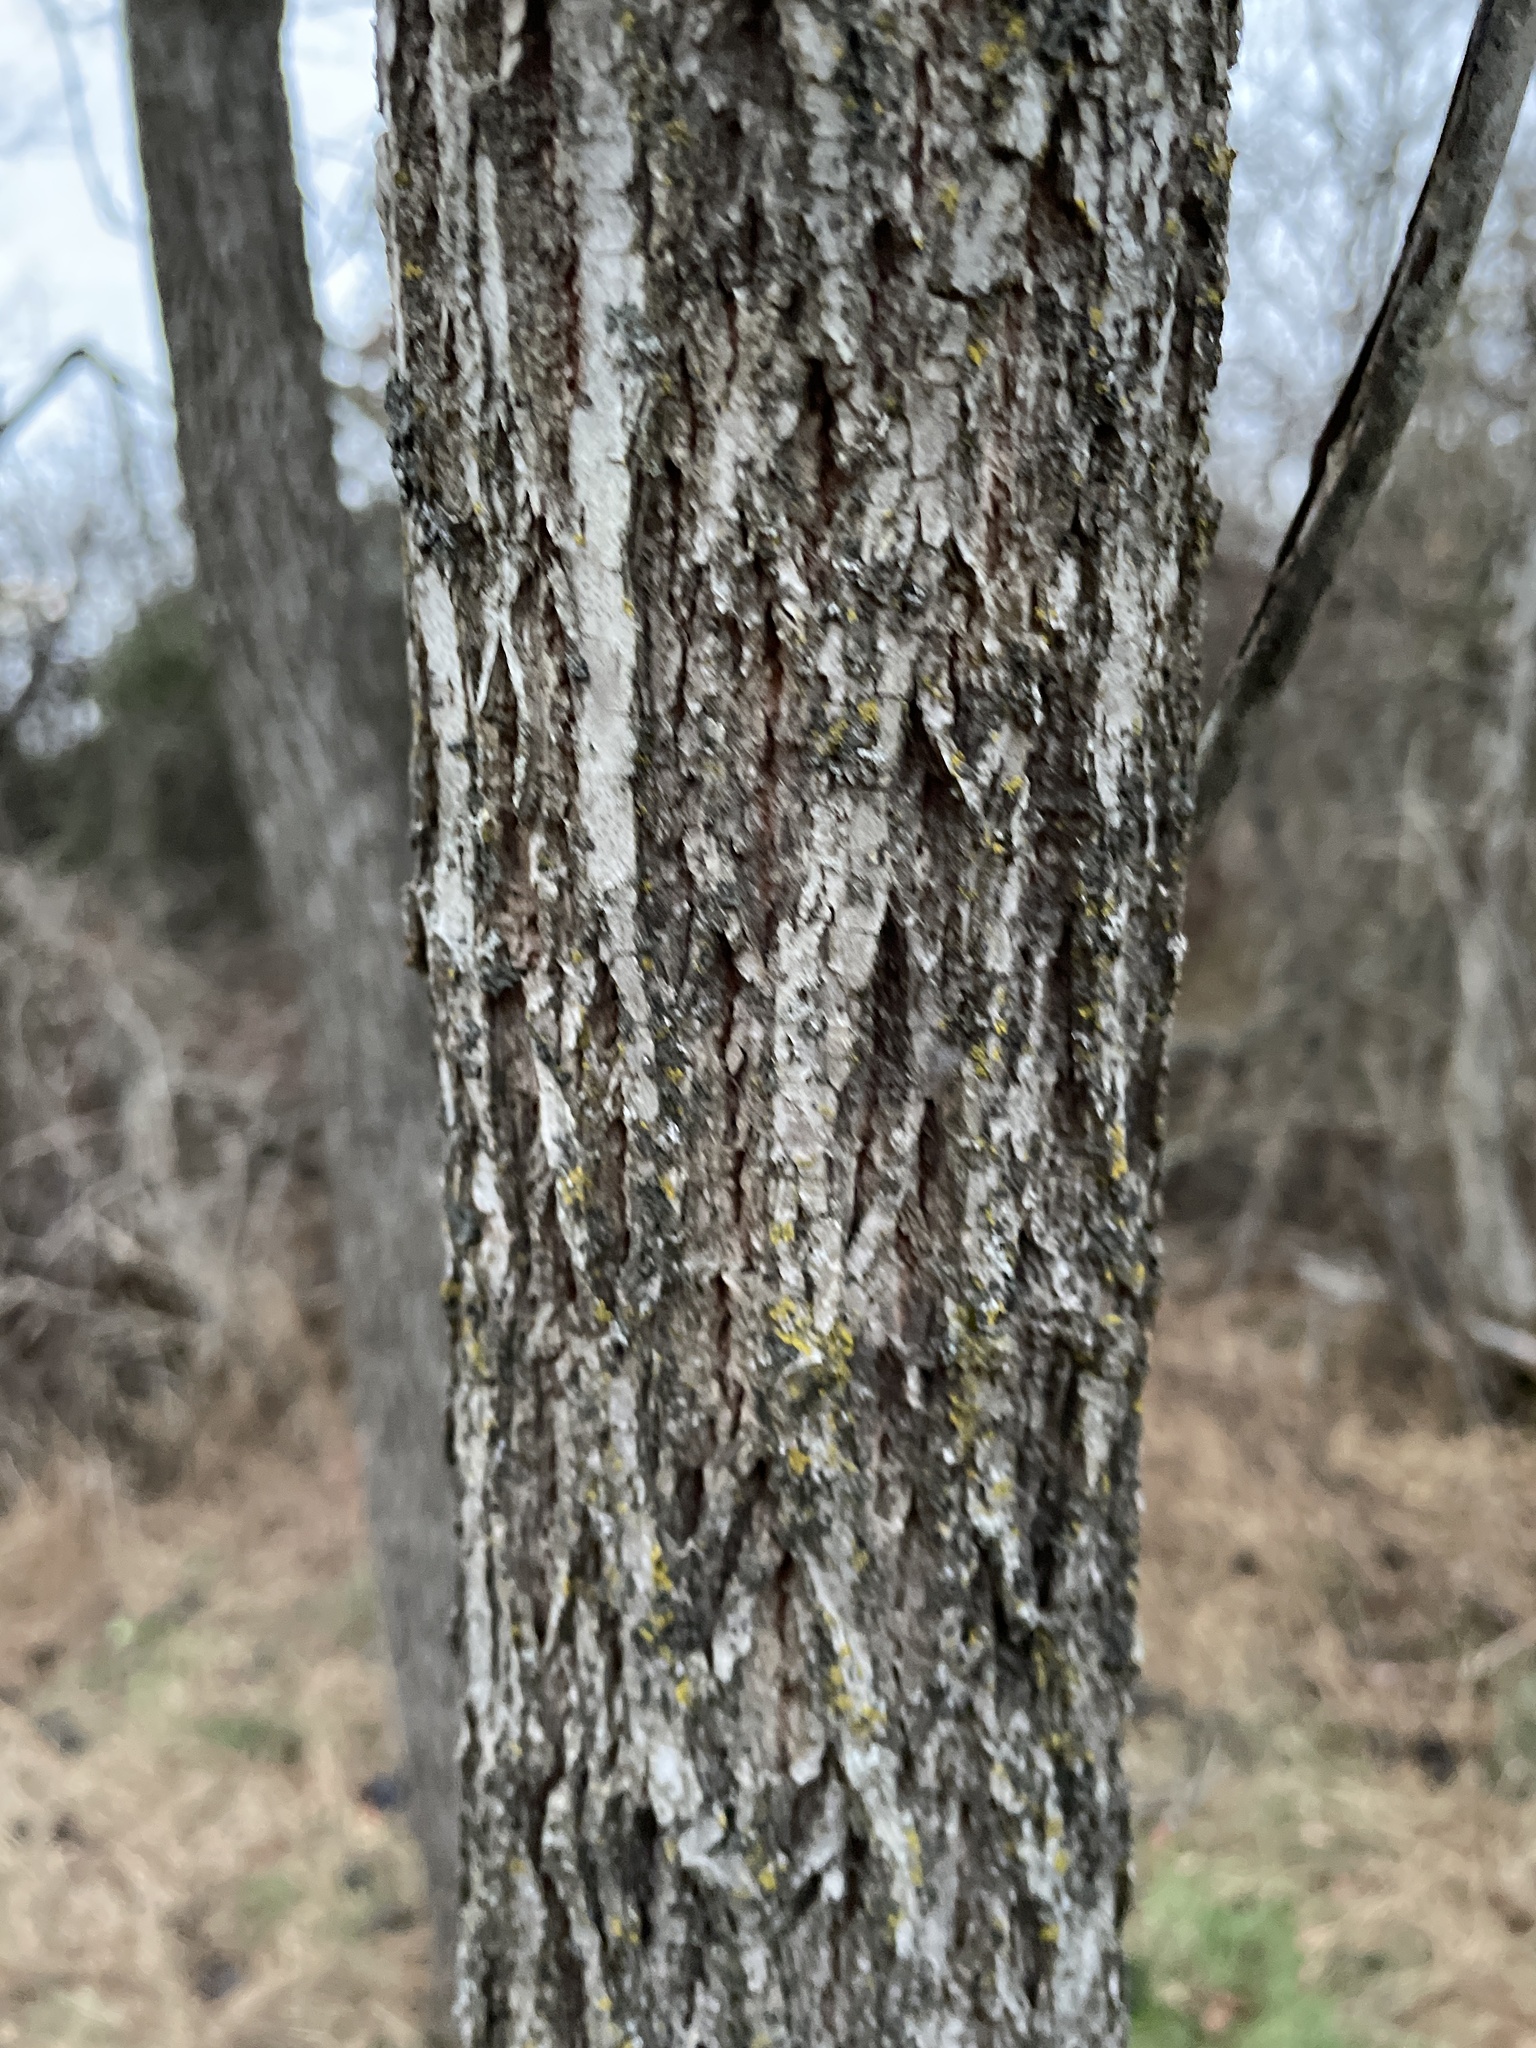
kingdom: Plantae
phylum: Tracheophyta
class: Magnoliopsida
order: Fagales
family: Juglandaceae
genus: Juglans
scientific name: Juglans nigra
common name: Black walnut
